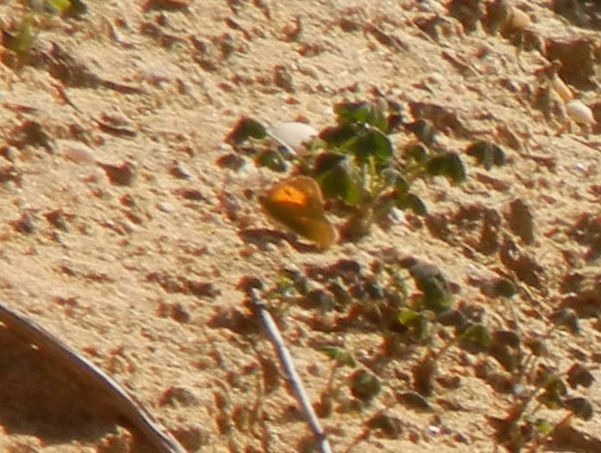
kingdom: Animalia
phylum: Arthropoda
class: Insecta
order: Lepidoptera
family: Pieridae
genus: Colias
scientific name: Colias croceus
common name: Clouded yellow
